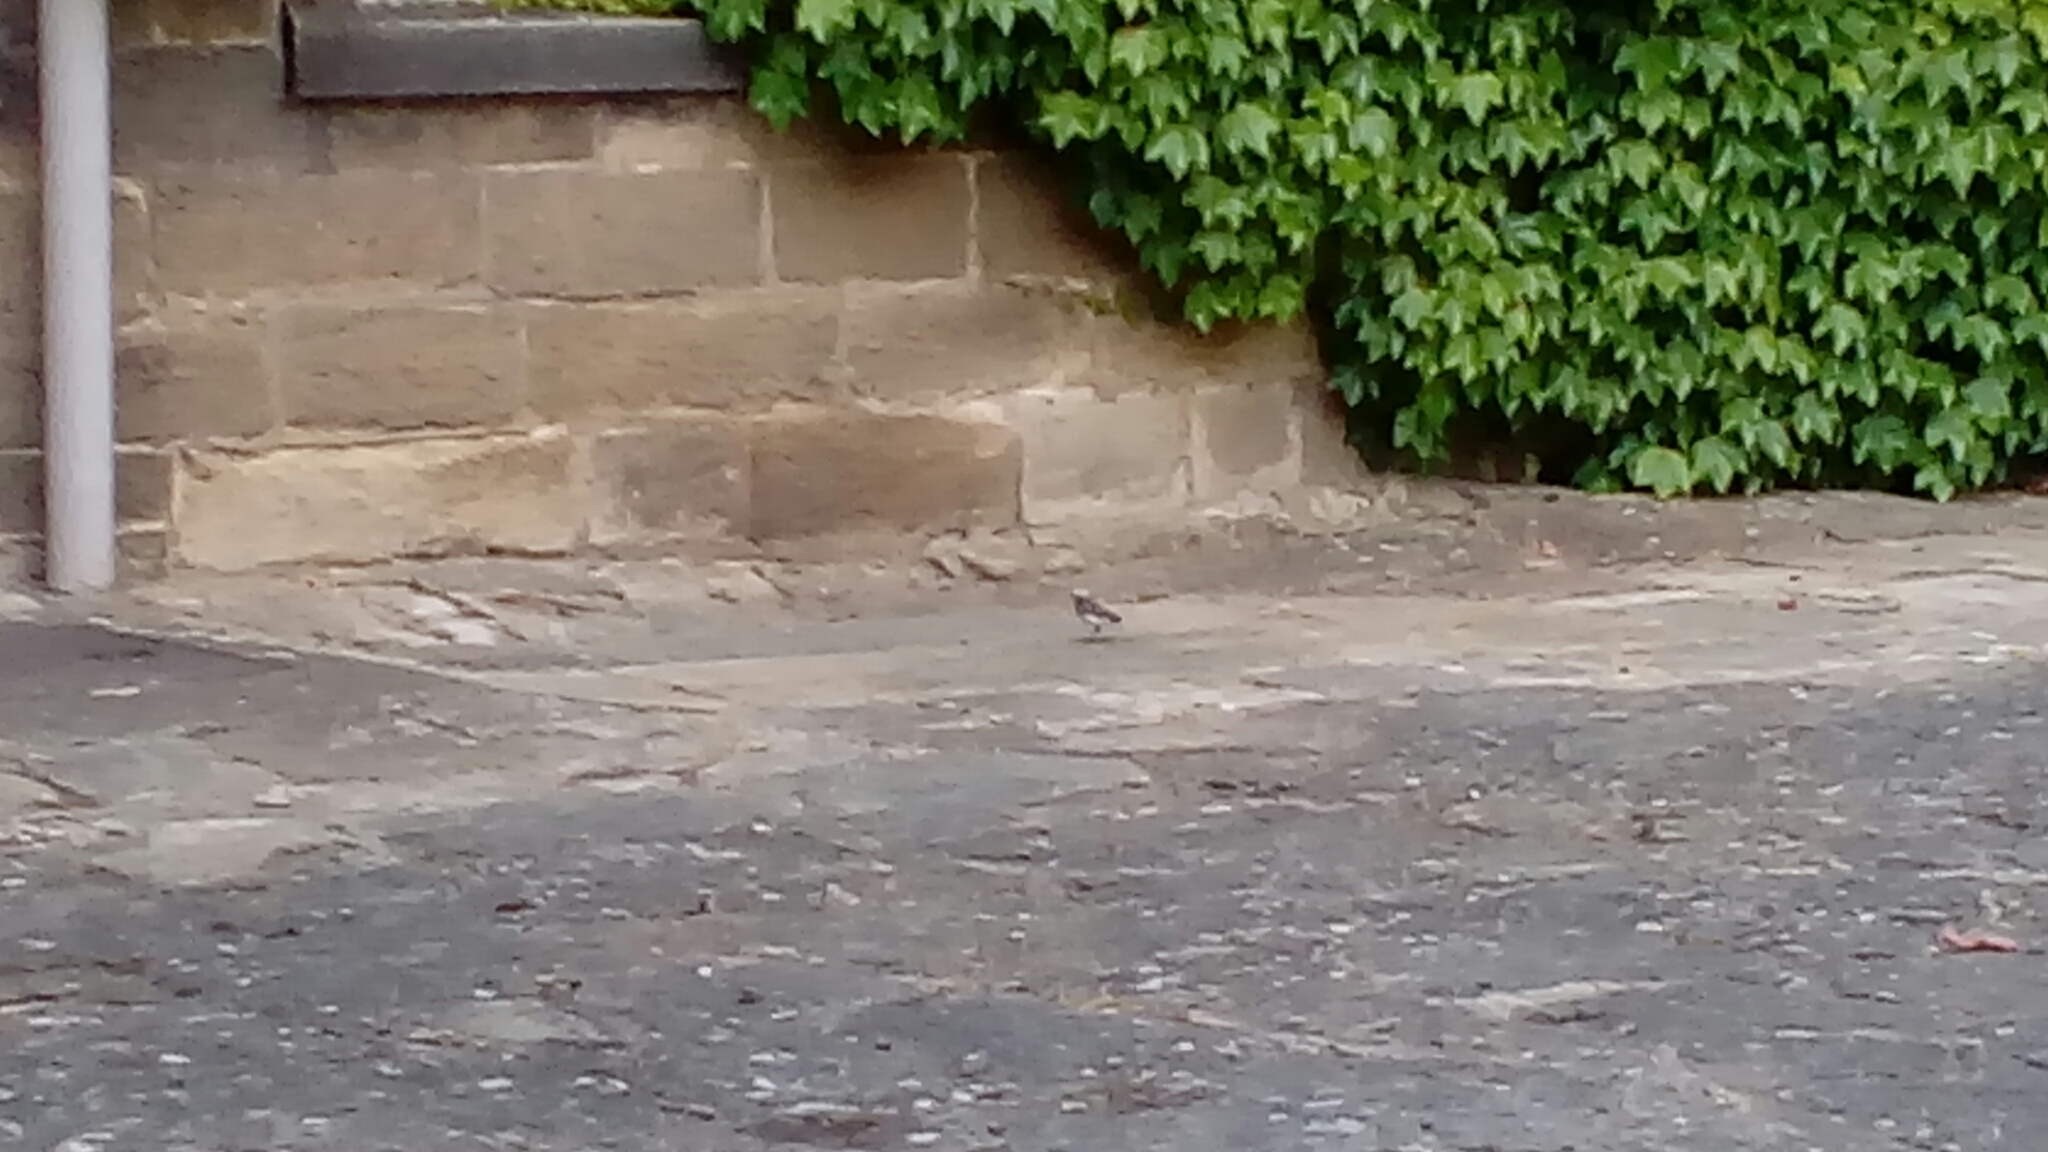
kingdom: Animalia
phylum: Chordata
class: Aves
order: Passeriformes
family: Motacillidae
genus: Motacilla
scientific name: Motacilla alba
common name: White wagtail
